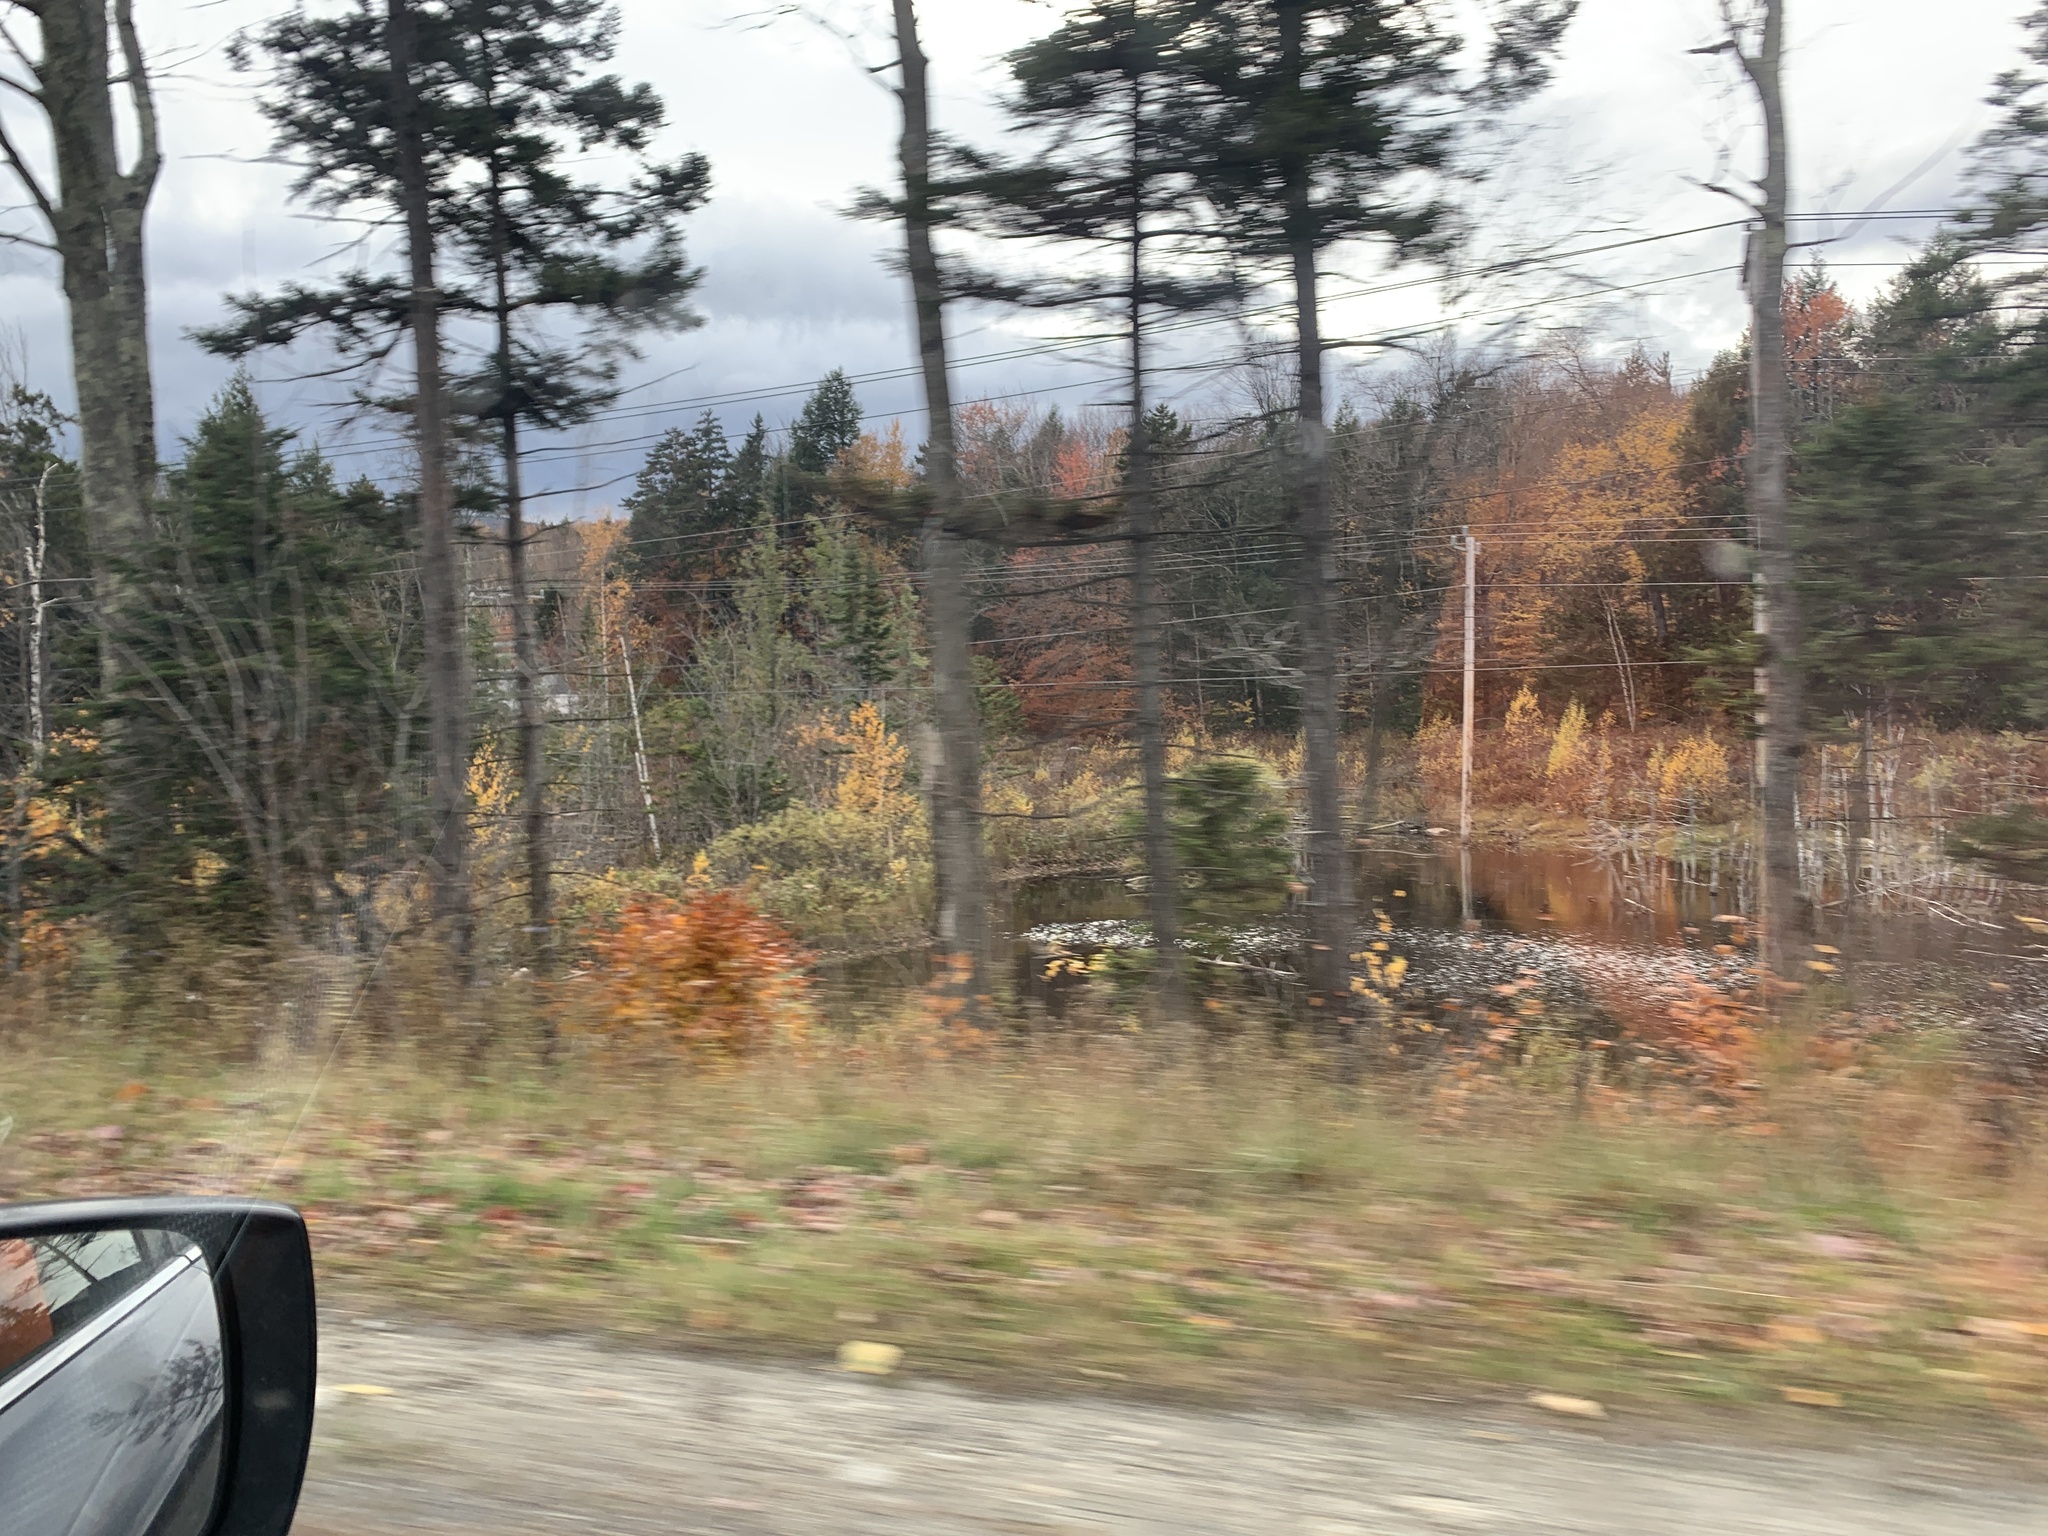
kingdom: Animalia
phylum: Chordata
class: Mammalia
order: Rodentia
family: Castoridae
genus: Castor
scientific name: Castor canadensis
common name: American beaver
